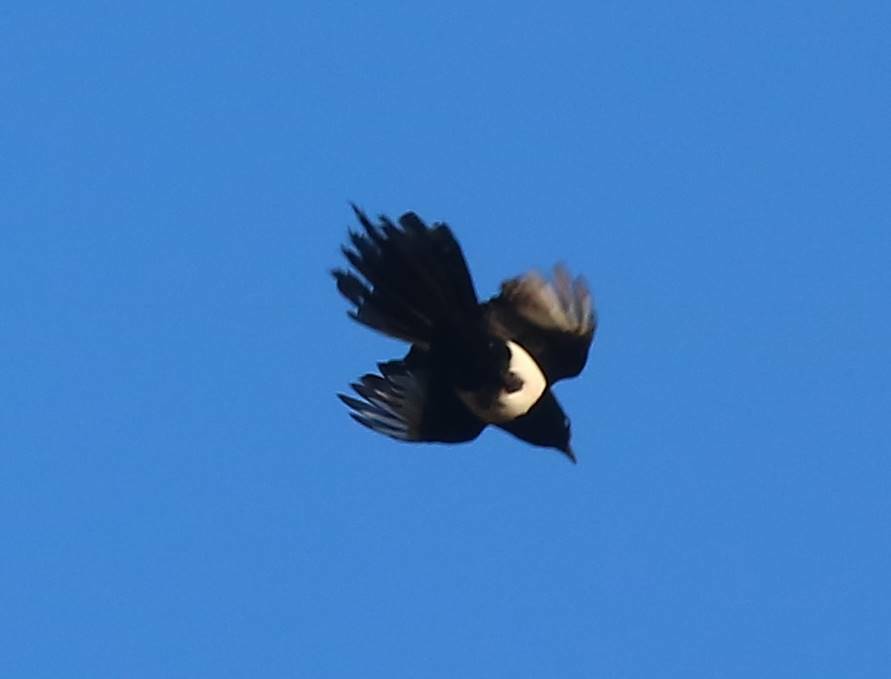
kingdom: Animalia
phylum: Chordata
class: Aves
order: Passeriformes
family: Corvidae
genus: Pica
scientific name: Pica mauritanica
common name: Maghreb magpie
